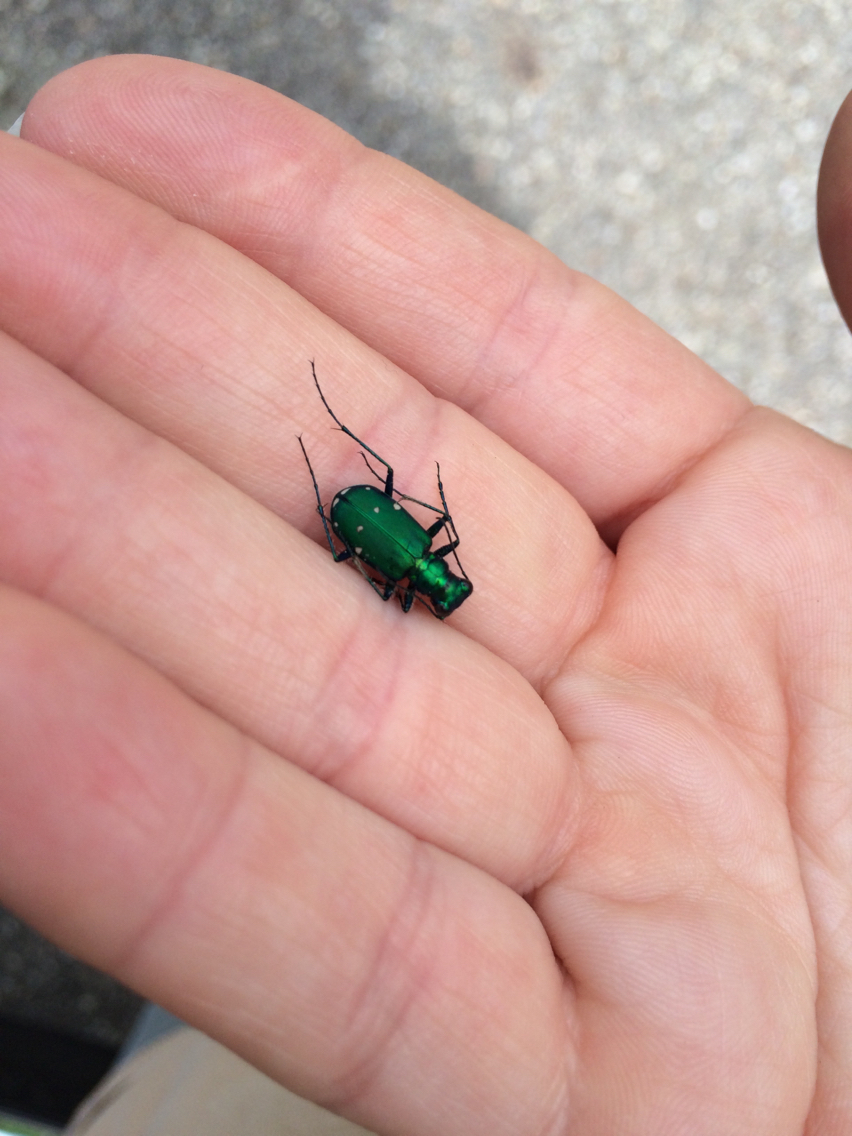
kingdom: Animalia
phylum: Arthropoda
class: Insecta
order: Coleoptera
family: Carabidae
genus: Cicindela
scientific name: Cicindela sexguttata
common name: Six-spotted tiger beetle
